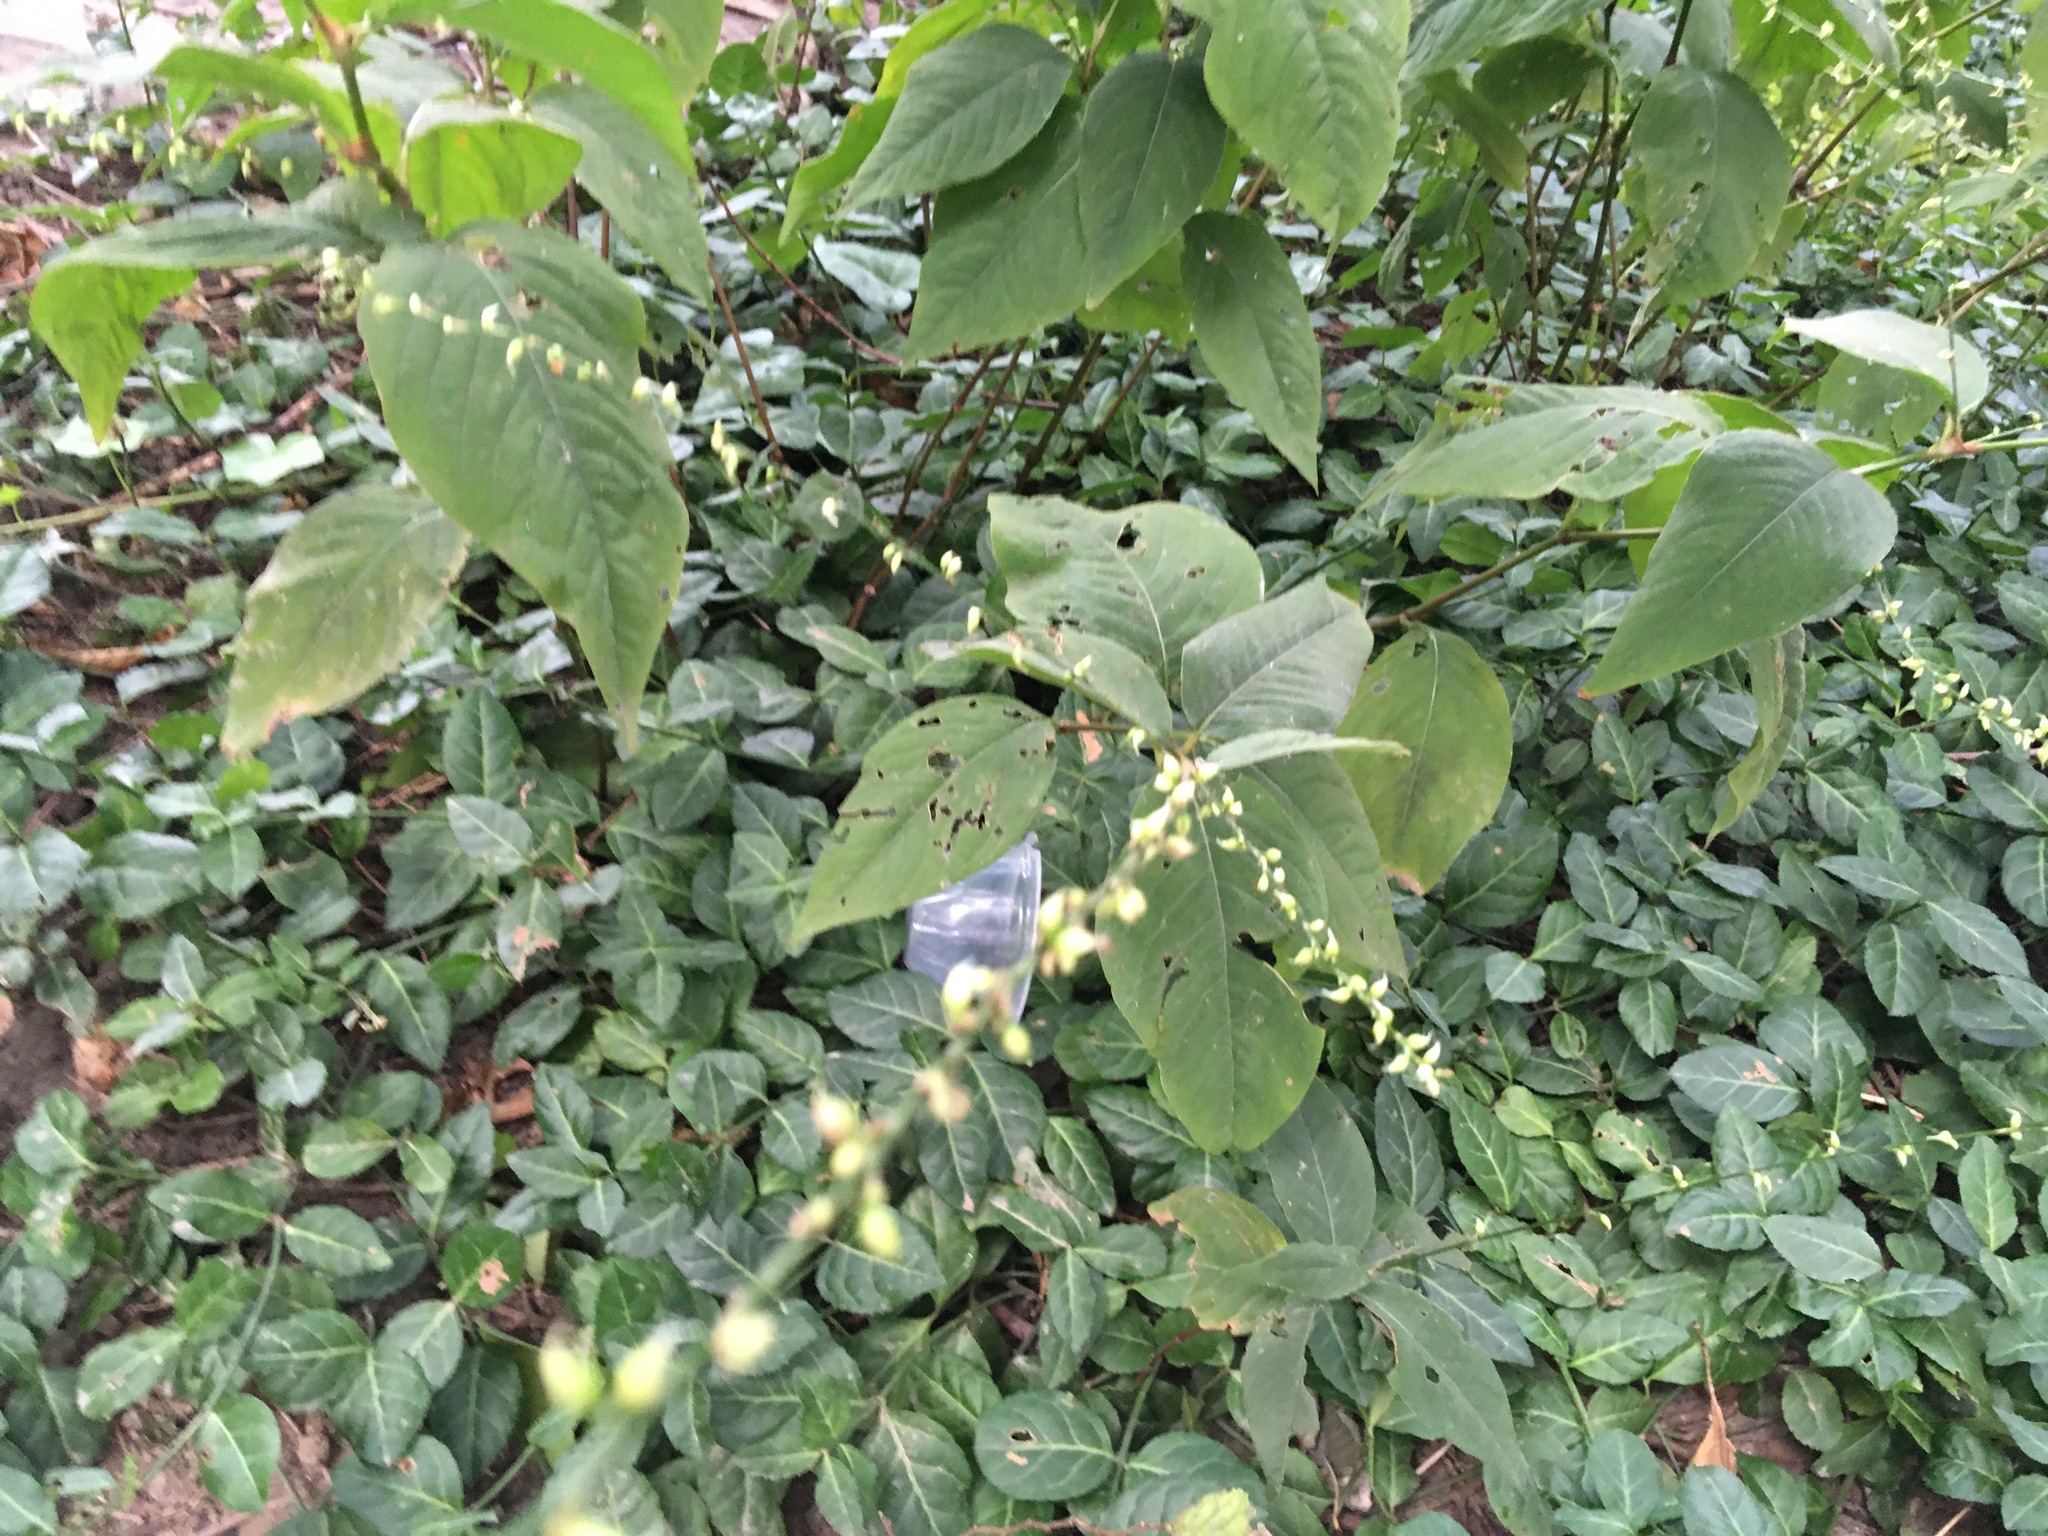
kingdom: Plantae
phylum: Tracheophyta
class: Magnoliopsida
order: Caryophyllales
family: Polygonaceae
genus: Persicaria
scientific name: Persicaria virginiana
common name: Jumpseed
